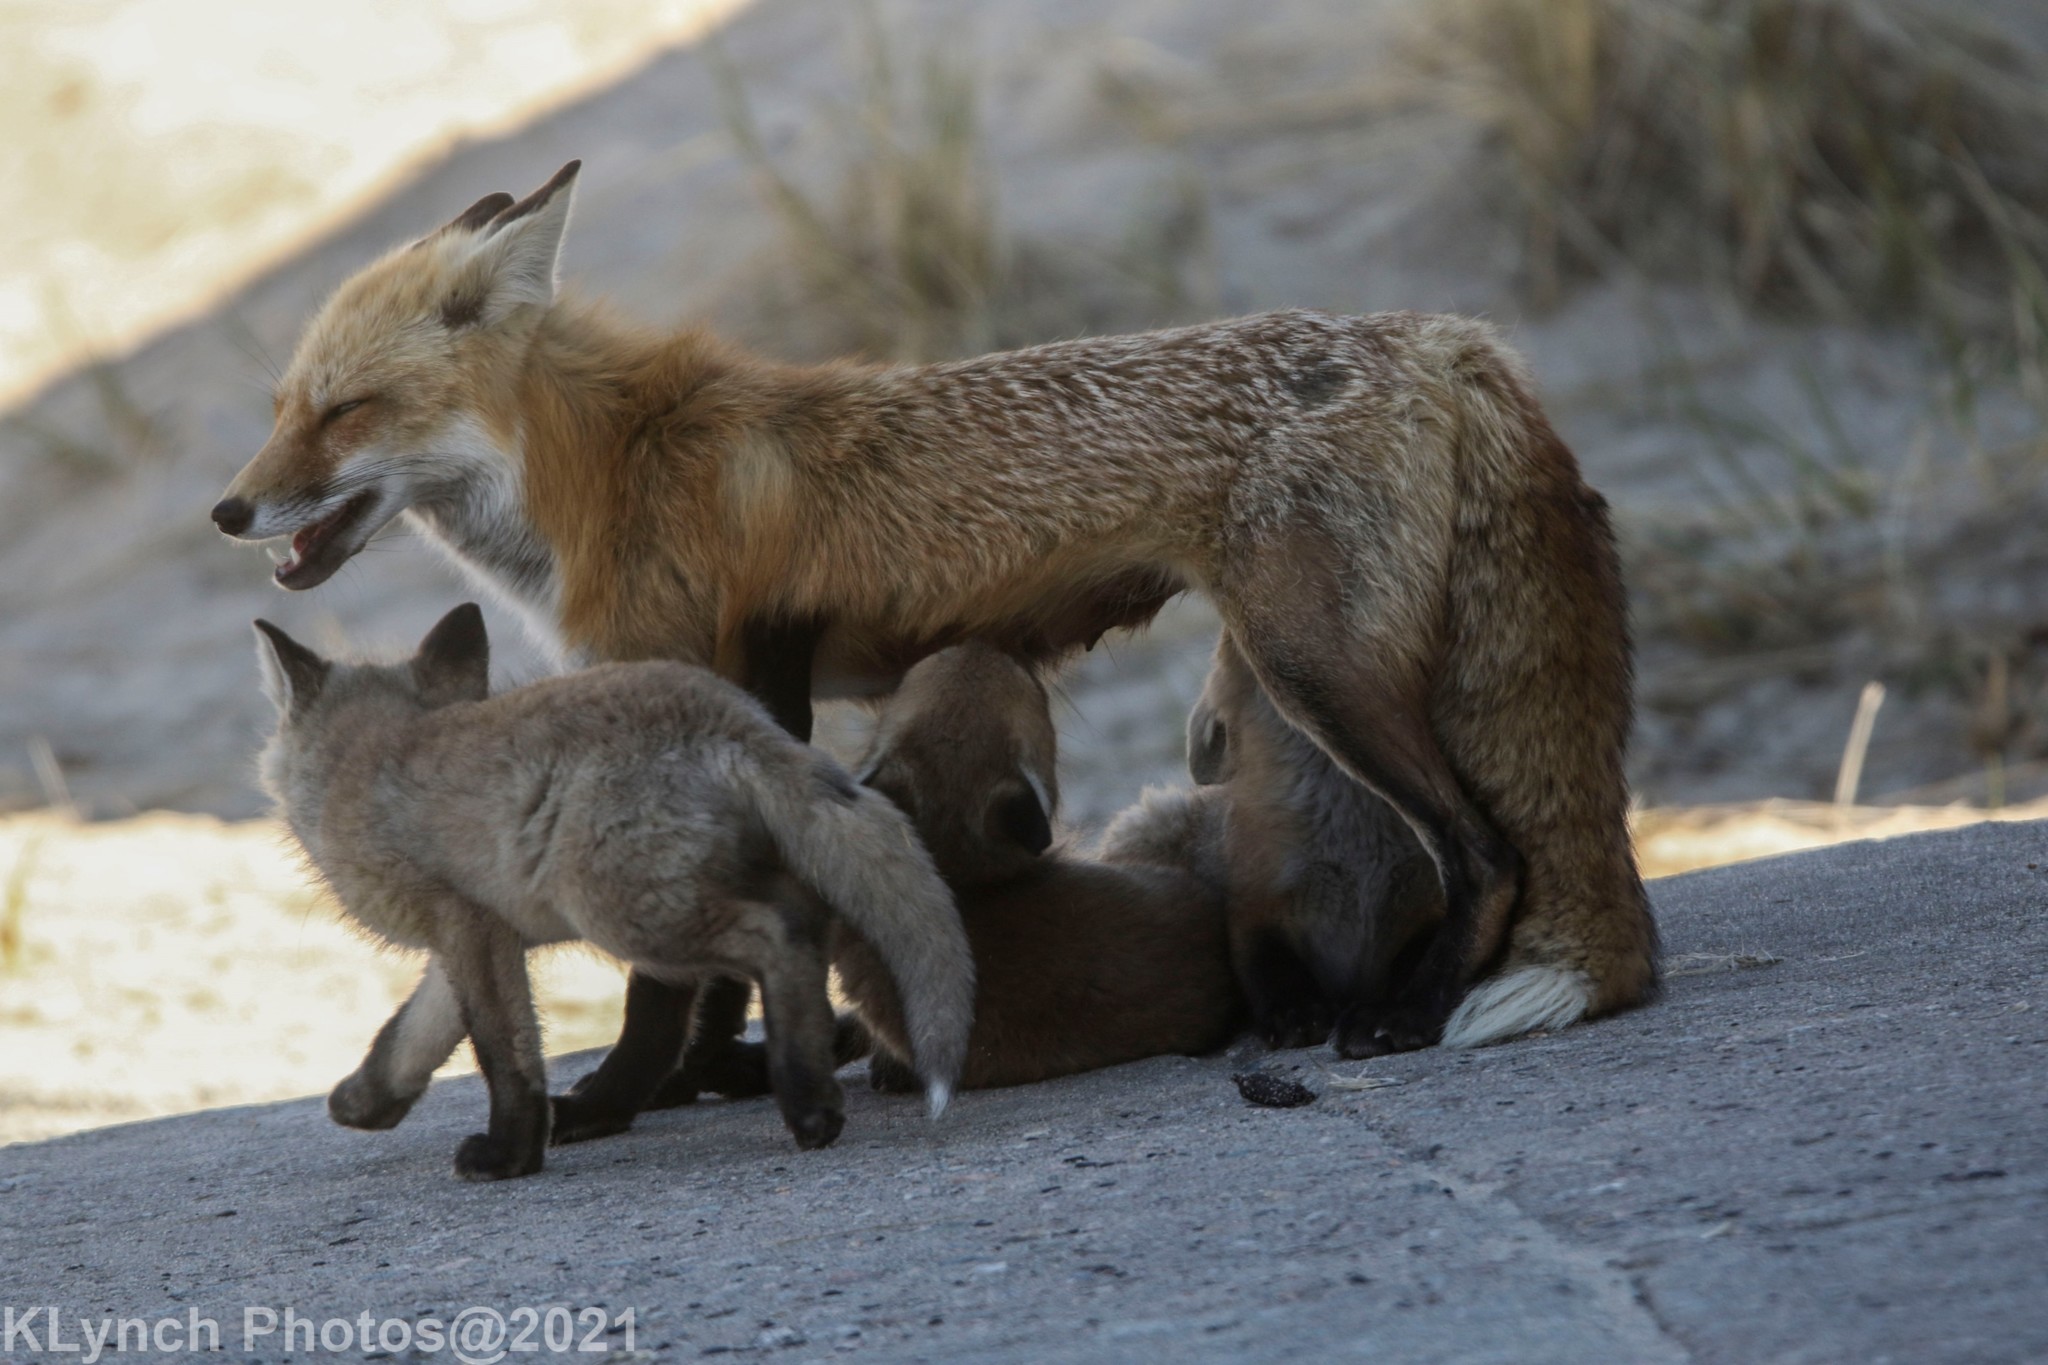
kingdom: Animalia
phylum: Chordata
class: Mammalia
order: Carnivora
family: Canidae
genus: Vulpes
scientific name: Vulpes vulpes
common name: Red fox
